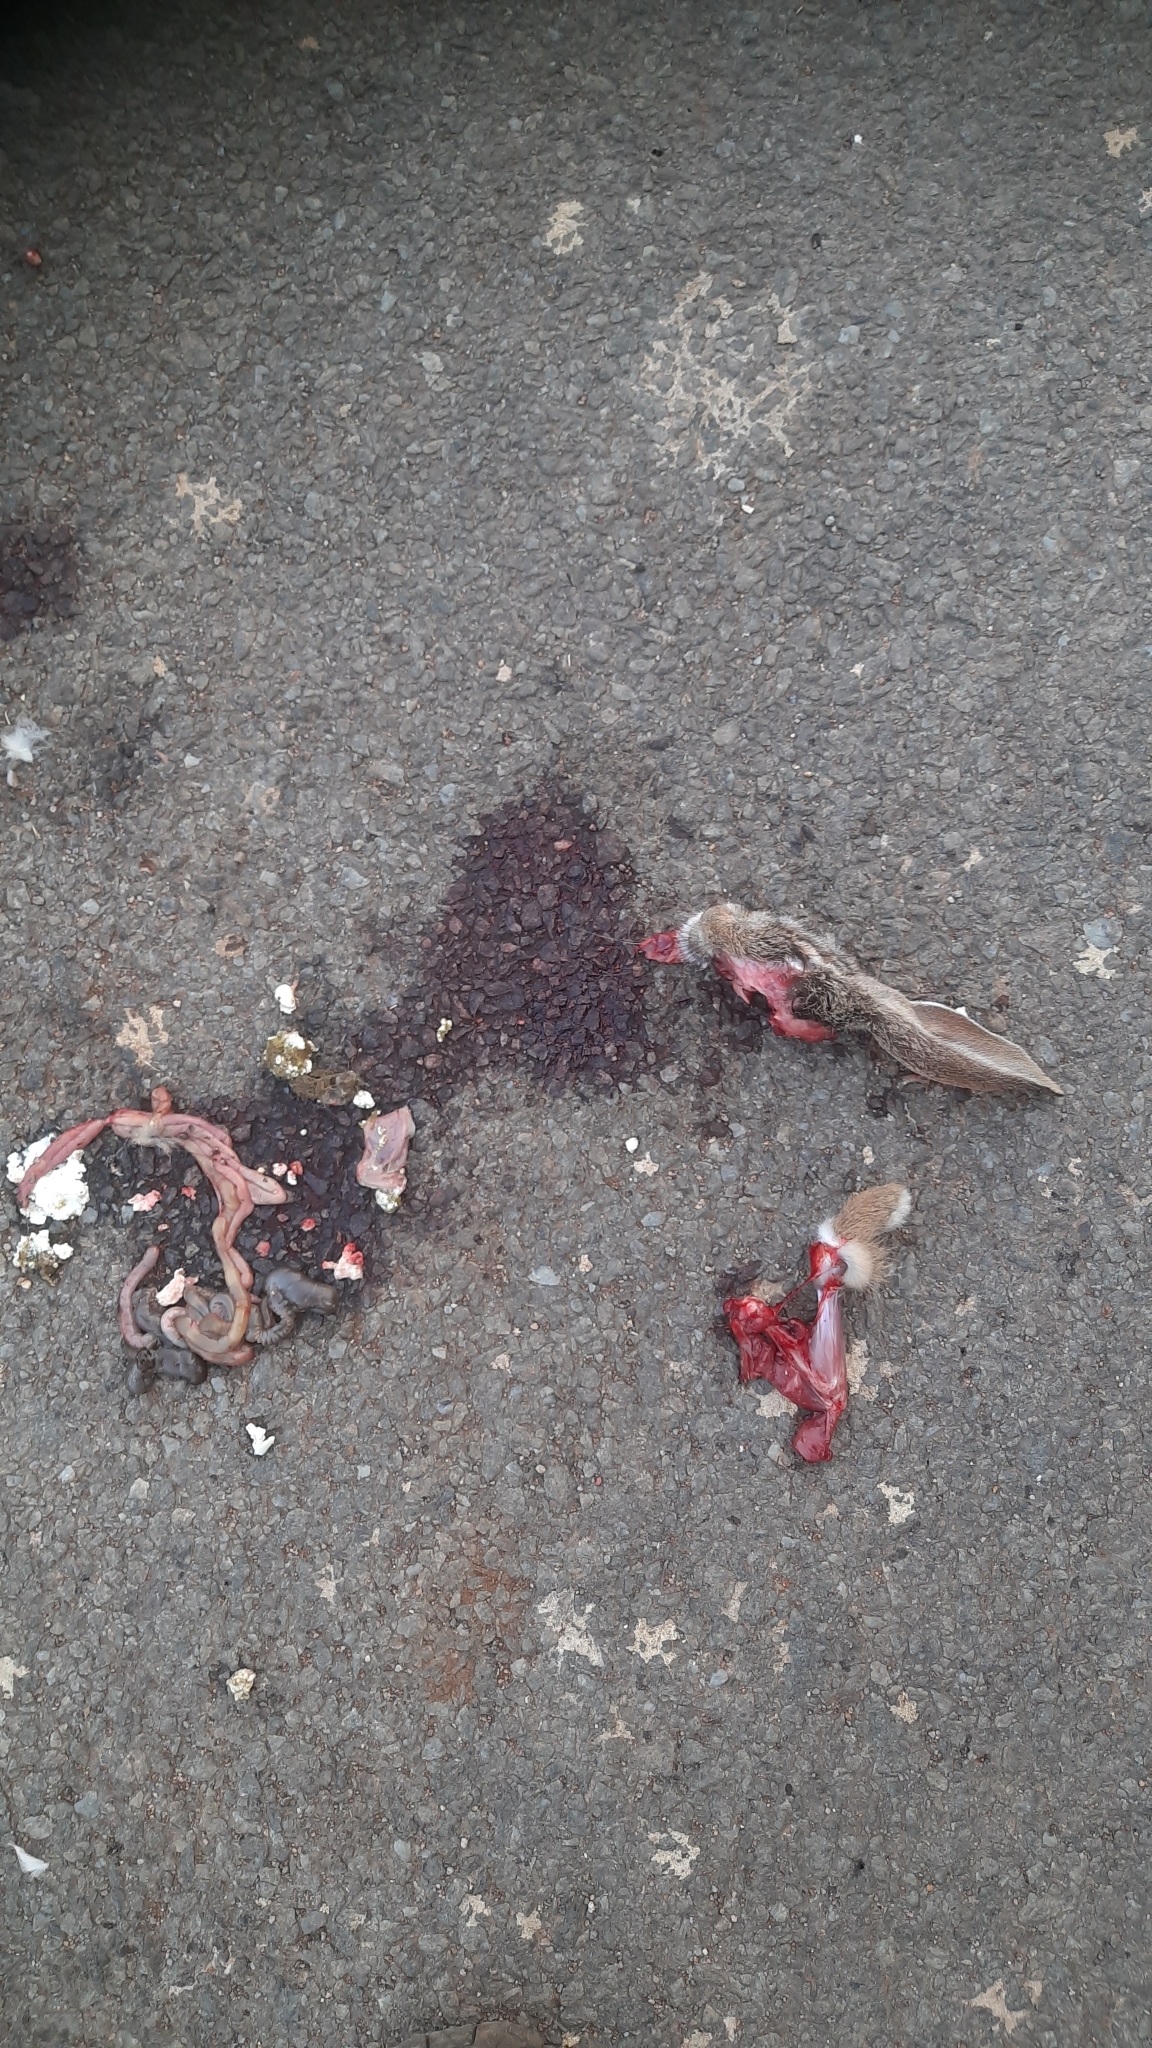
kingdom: Animalia
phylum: Chordata
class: Mammalia
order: Lagomorpha
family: Leporidae
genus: Lepus
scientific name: Lepus nigricollis
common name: Indian hare
